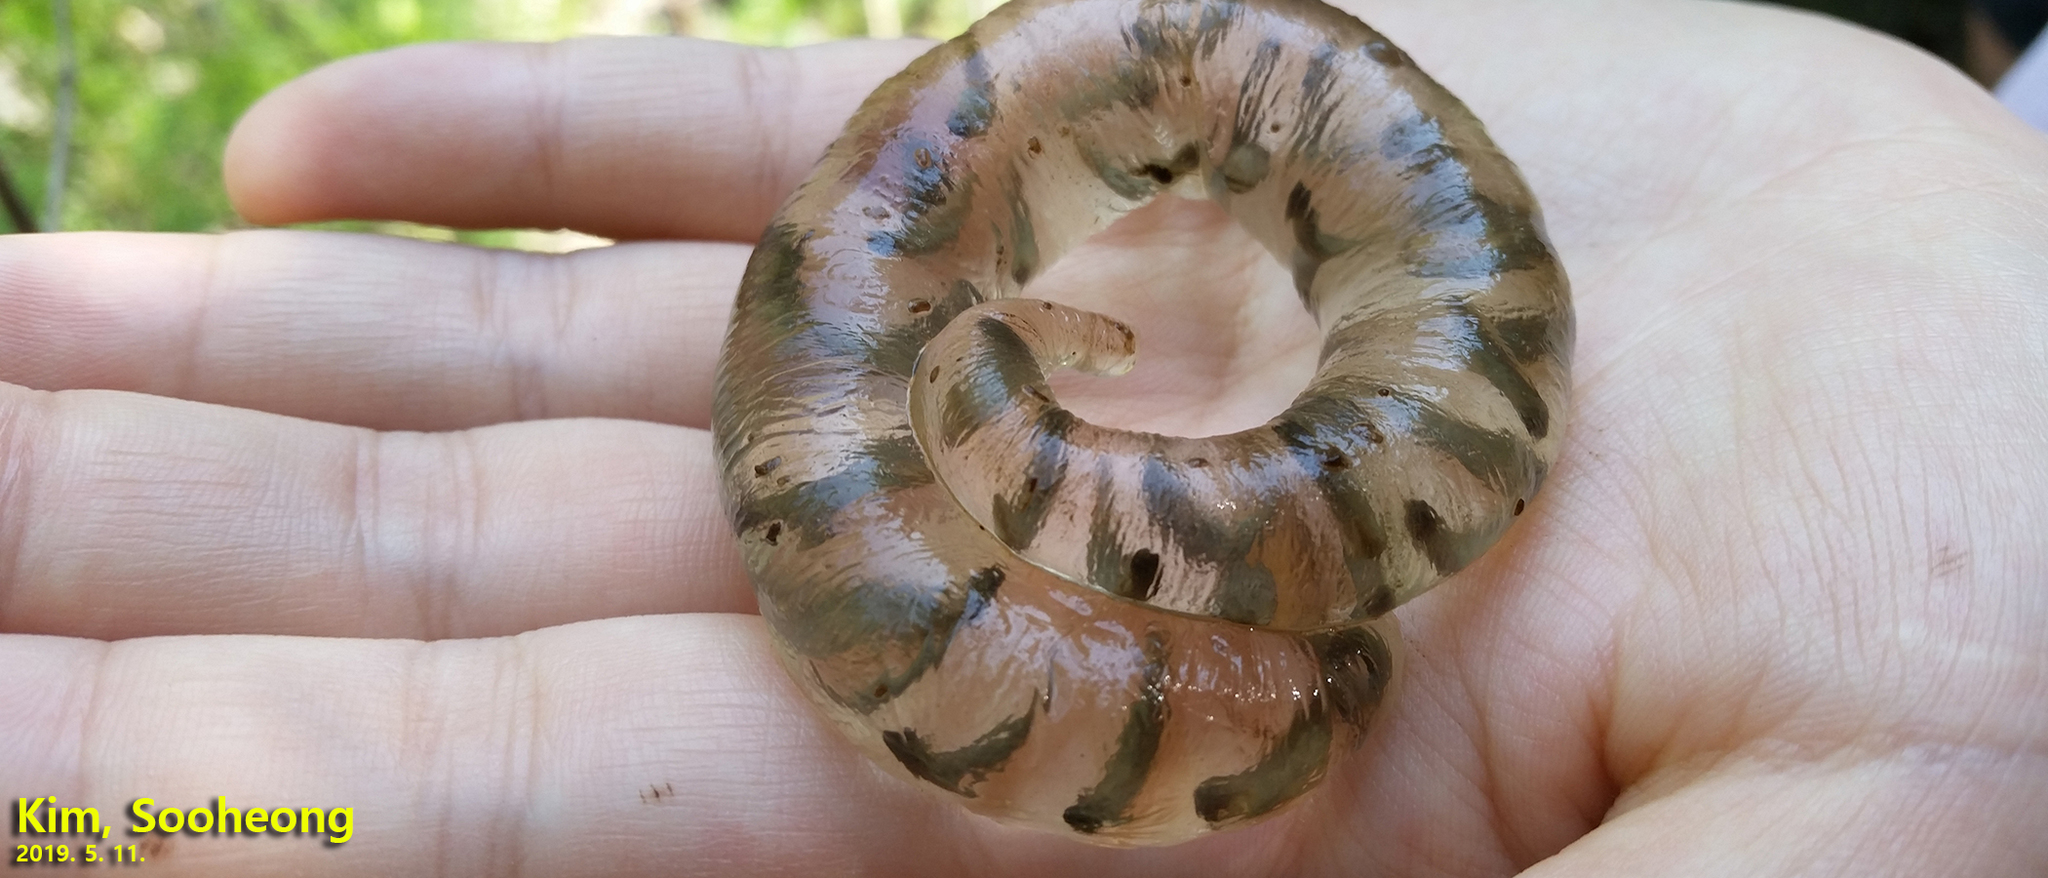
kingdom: Animalia
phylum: Chordata
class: Amphibia
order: Caudata
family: Hynobiidae
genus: Hynobius
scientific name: Hynobius leechii
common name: Gensan salamander
